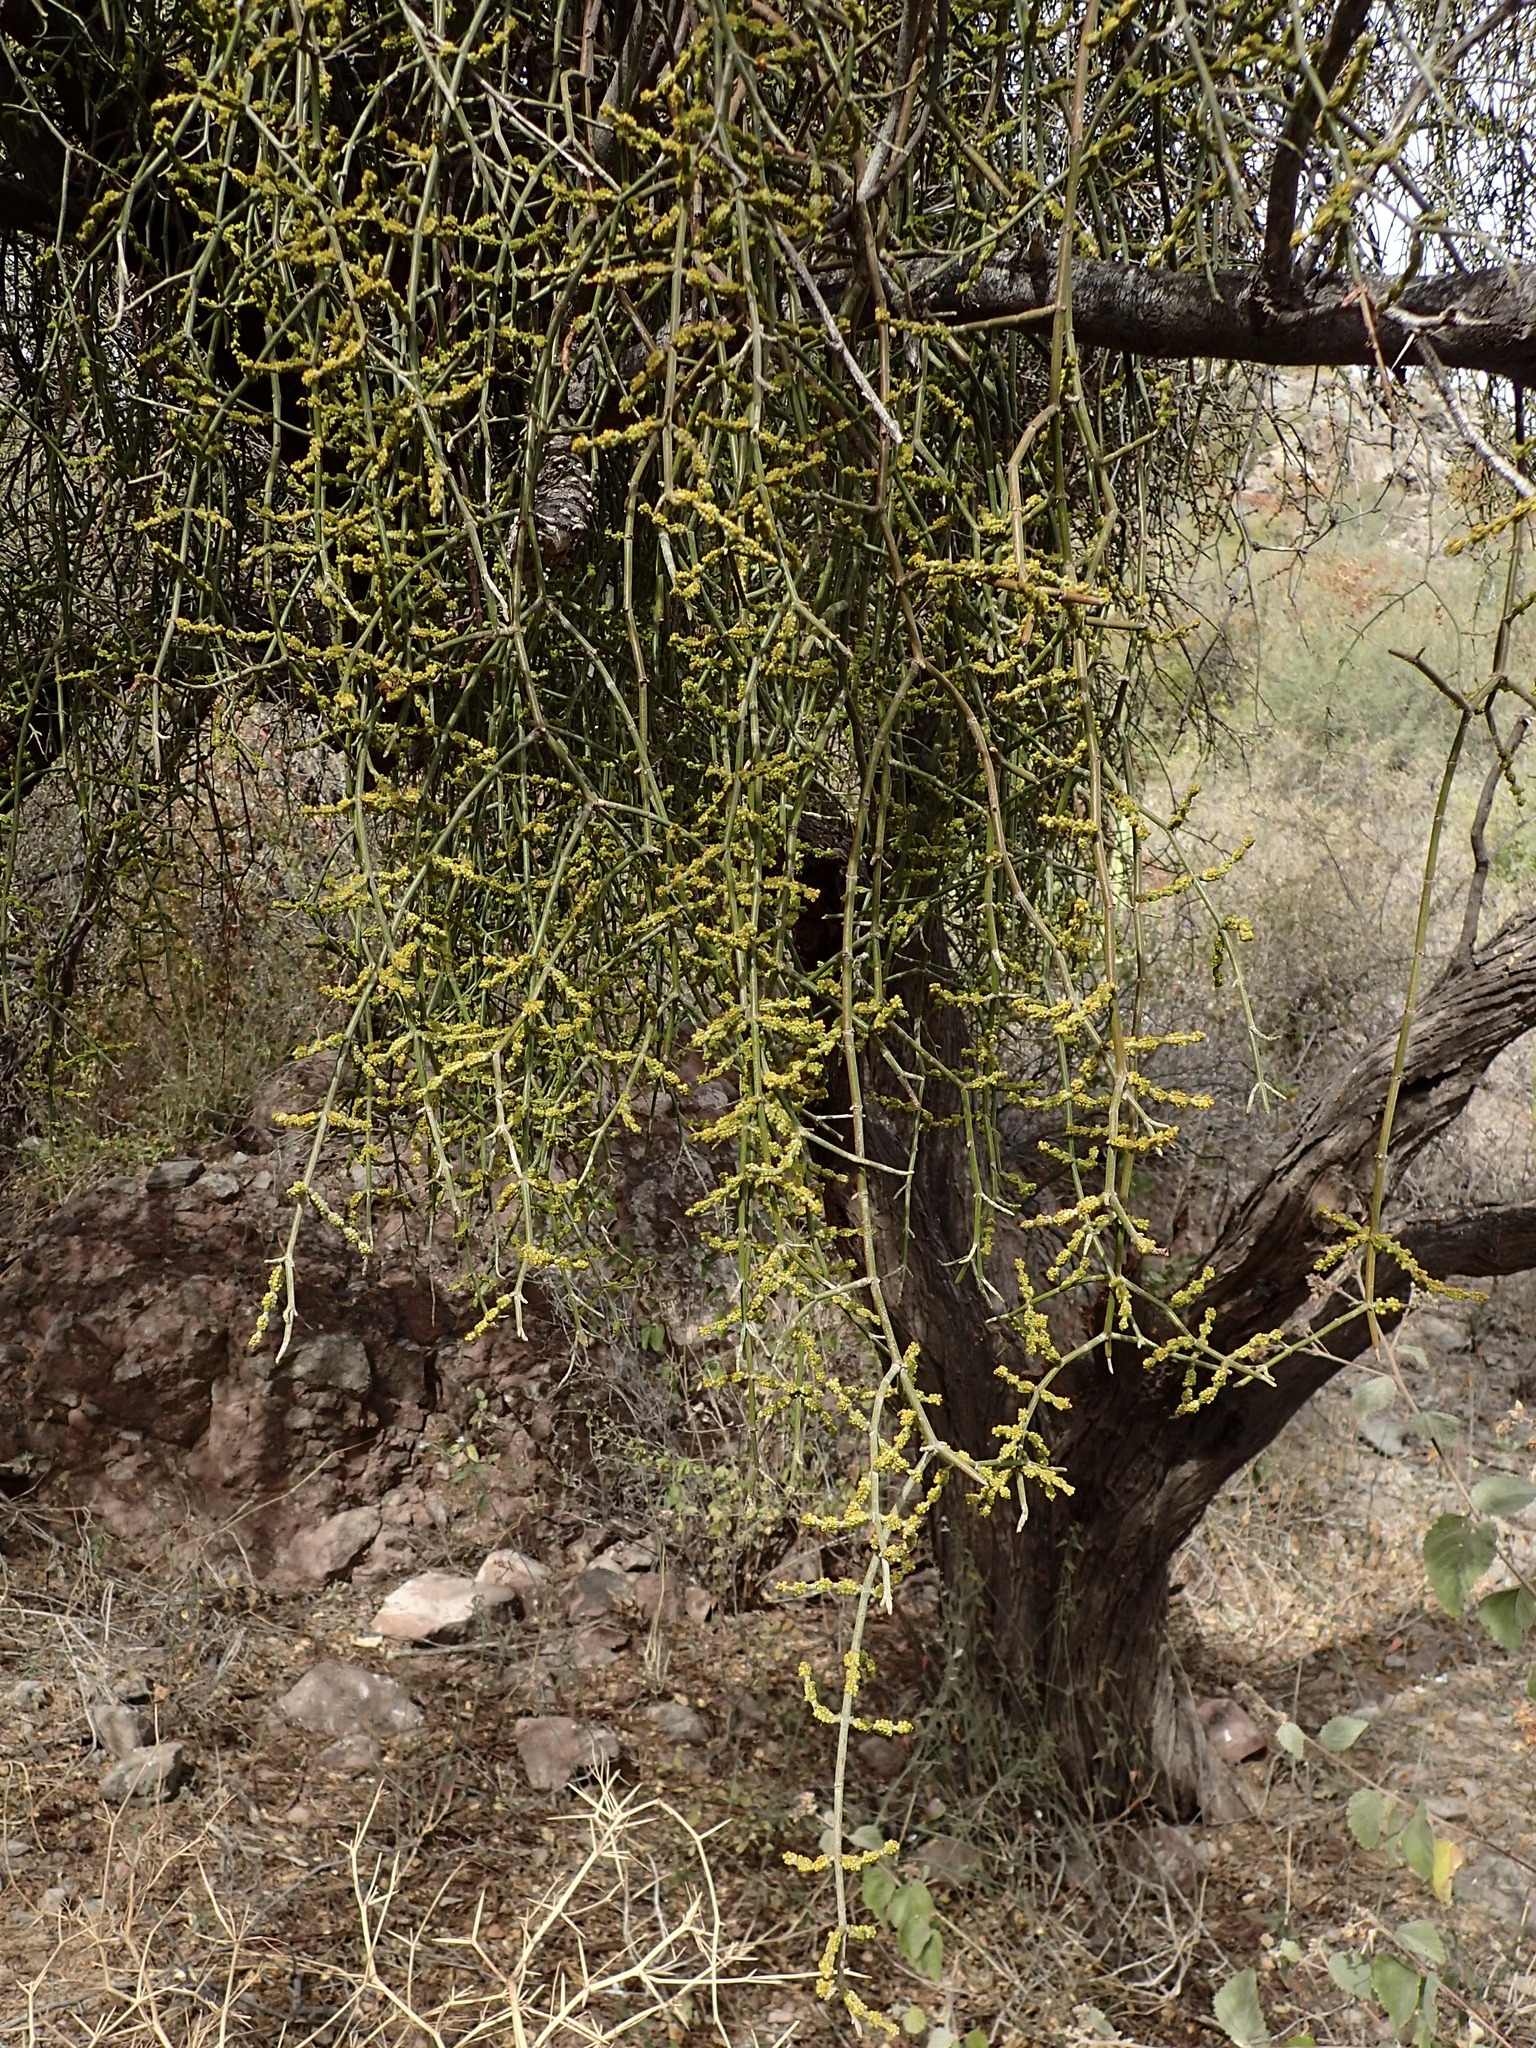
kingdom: Plantae
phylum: Tracheophyta
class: Magnoliopsida
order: Santalales
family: Viscaceae
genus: Phoradendron
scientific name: Phoradendron californicum
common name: Acacia mistletoe
